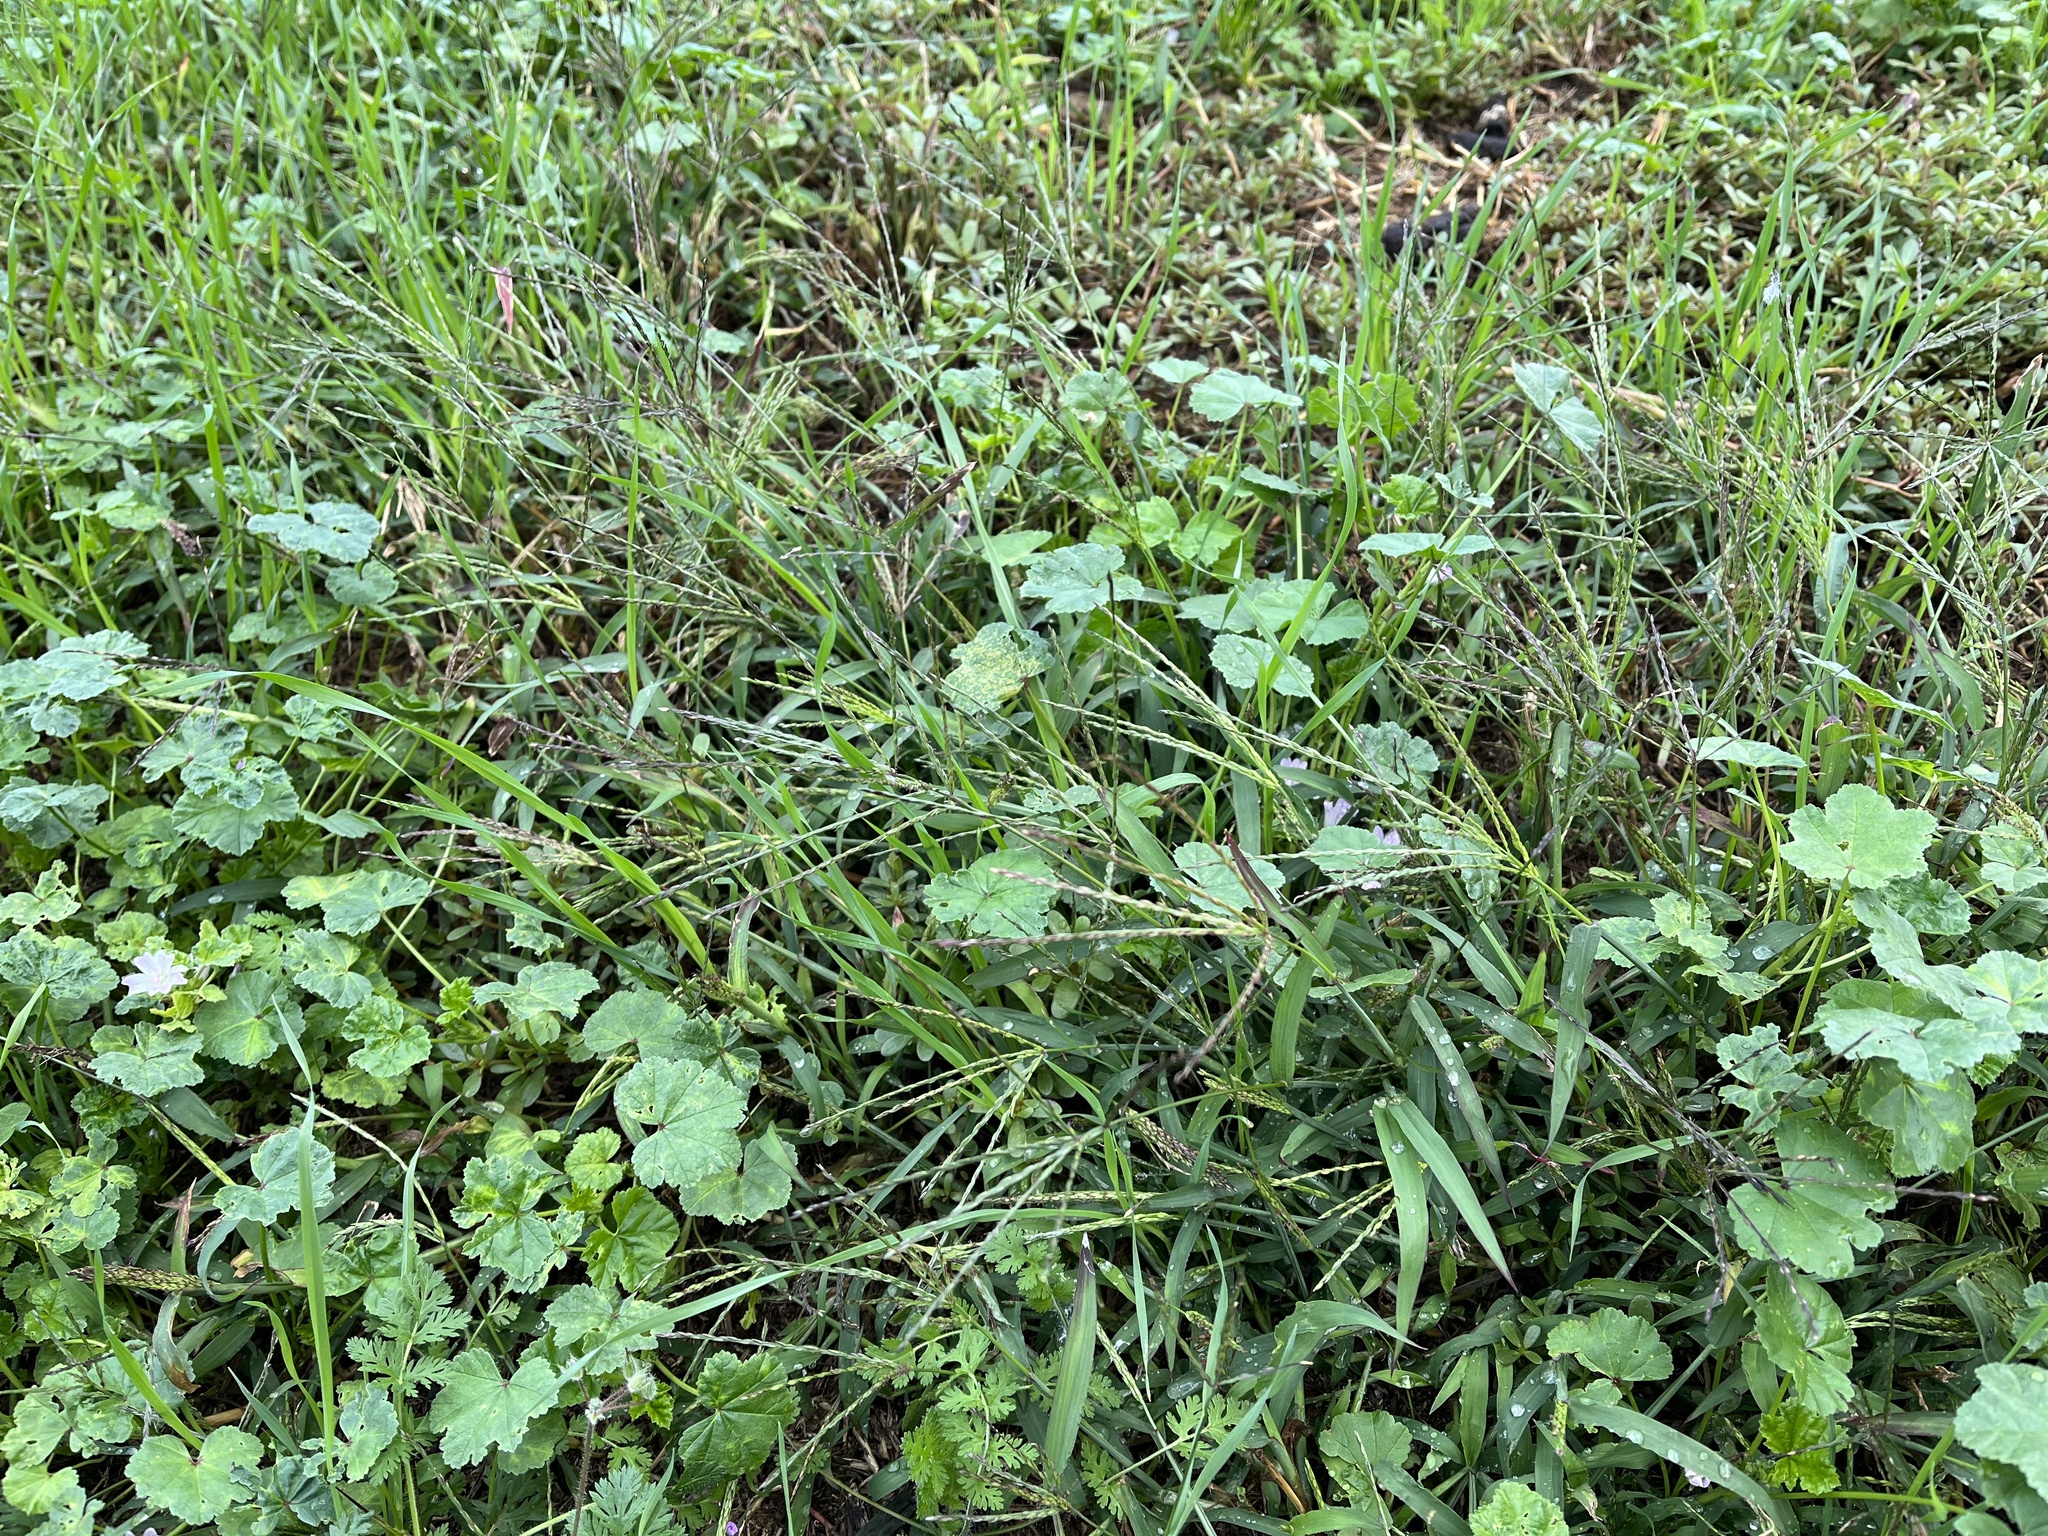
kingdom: Plantae
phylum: Tracheophyta
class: Liliopsida
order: Poales
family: Poaceae
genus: Digitaria
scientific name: Digitaria sanguinalis
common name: Hairy crabgrass
